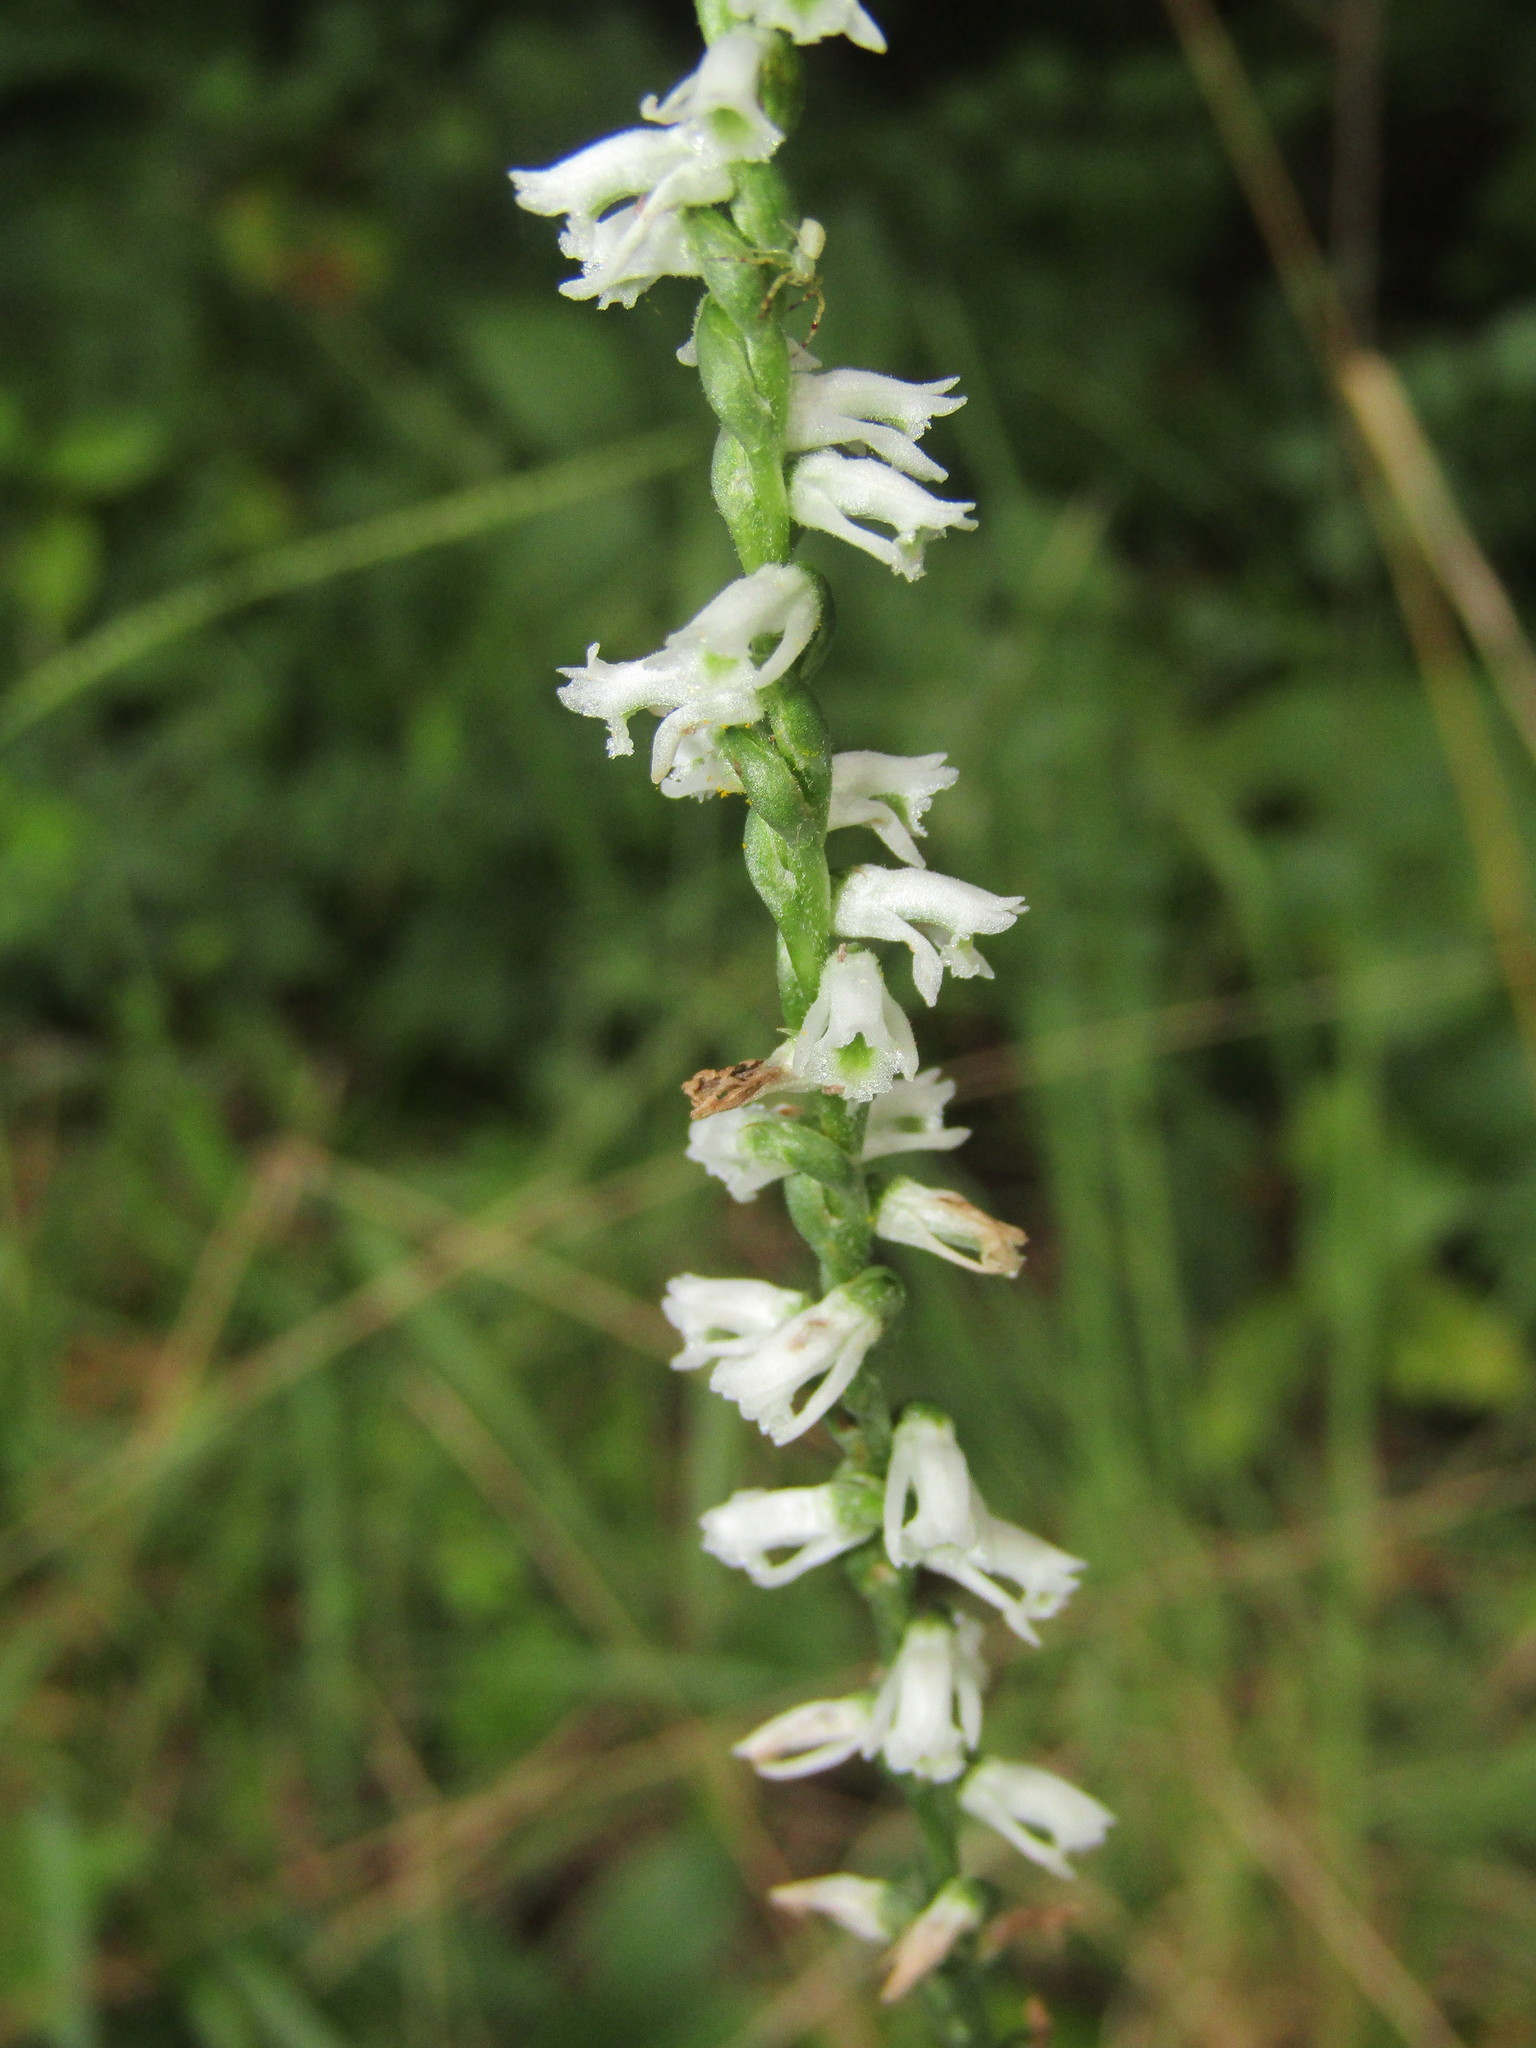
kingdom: Plantae
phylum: Tracheophyta
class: Liliopsida
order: Asparagales
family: Orchidaceae
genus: Spiranthes
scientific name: Spiranthes lacera
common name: Northern slender ladies'-tresses
